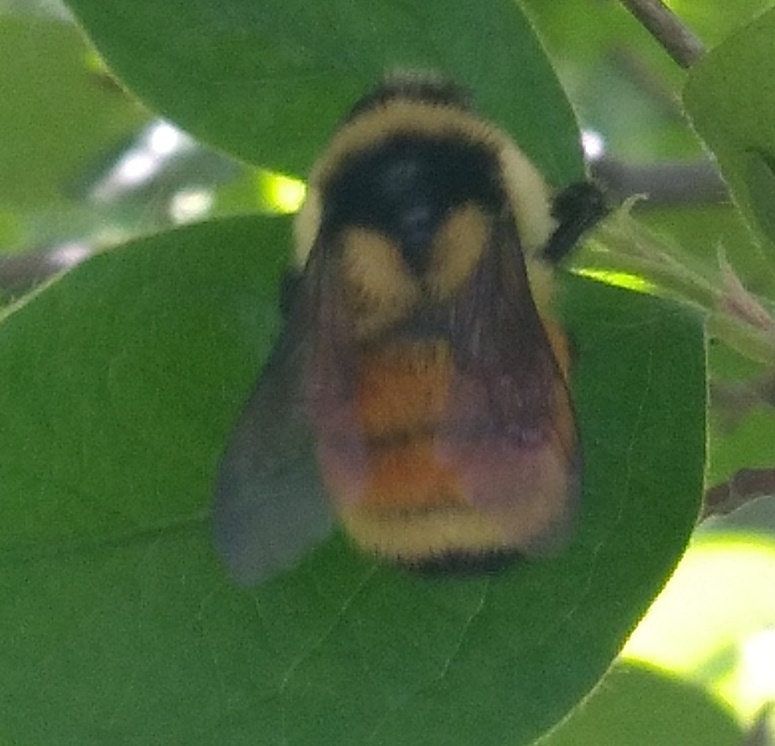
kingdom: Animalia
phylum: Arthropoda
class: Insecta
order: Hymenoptera
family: Apidae
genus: Bombus
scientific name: Bombus ternarius
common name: Tri-colored bumble bee
